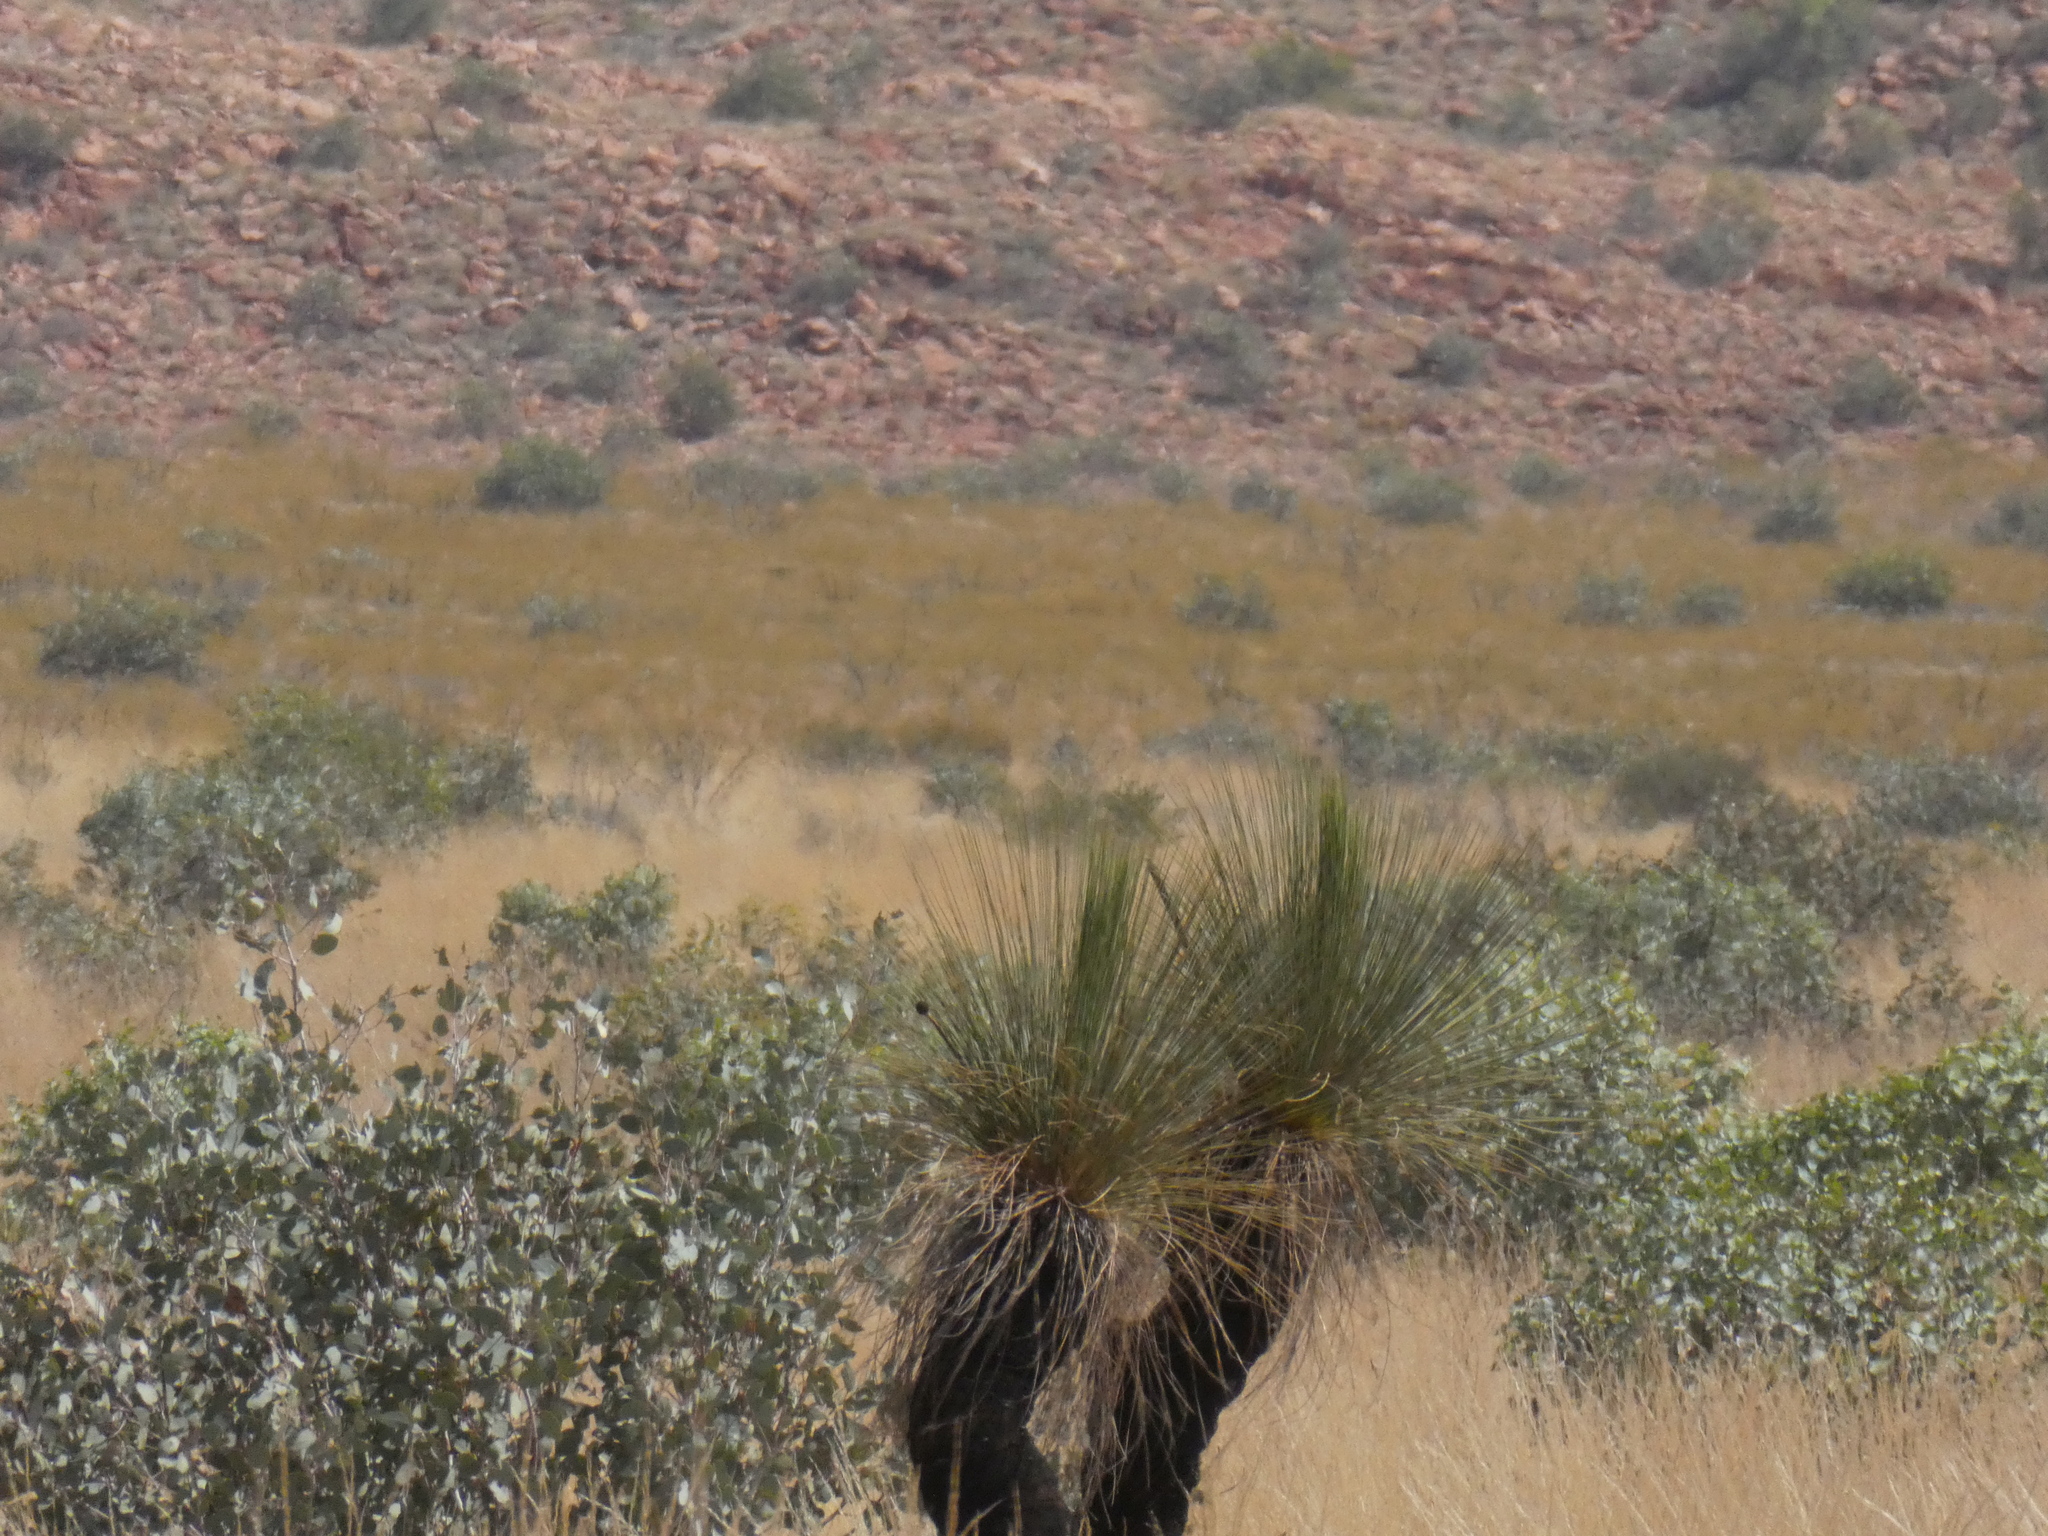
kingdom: Plantae
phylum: Tracheophyta
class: Liliopsida
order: Asparagales
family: Asphodelaceae
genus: Xanthorrhoea
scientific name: Xanthorrhoea thorntonii
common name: Cundeelee grass-tree
